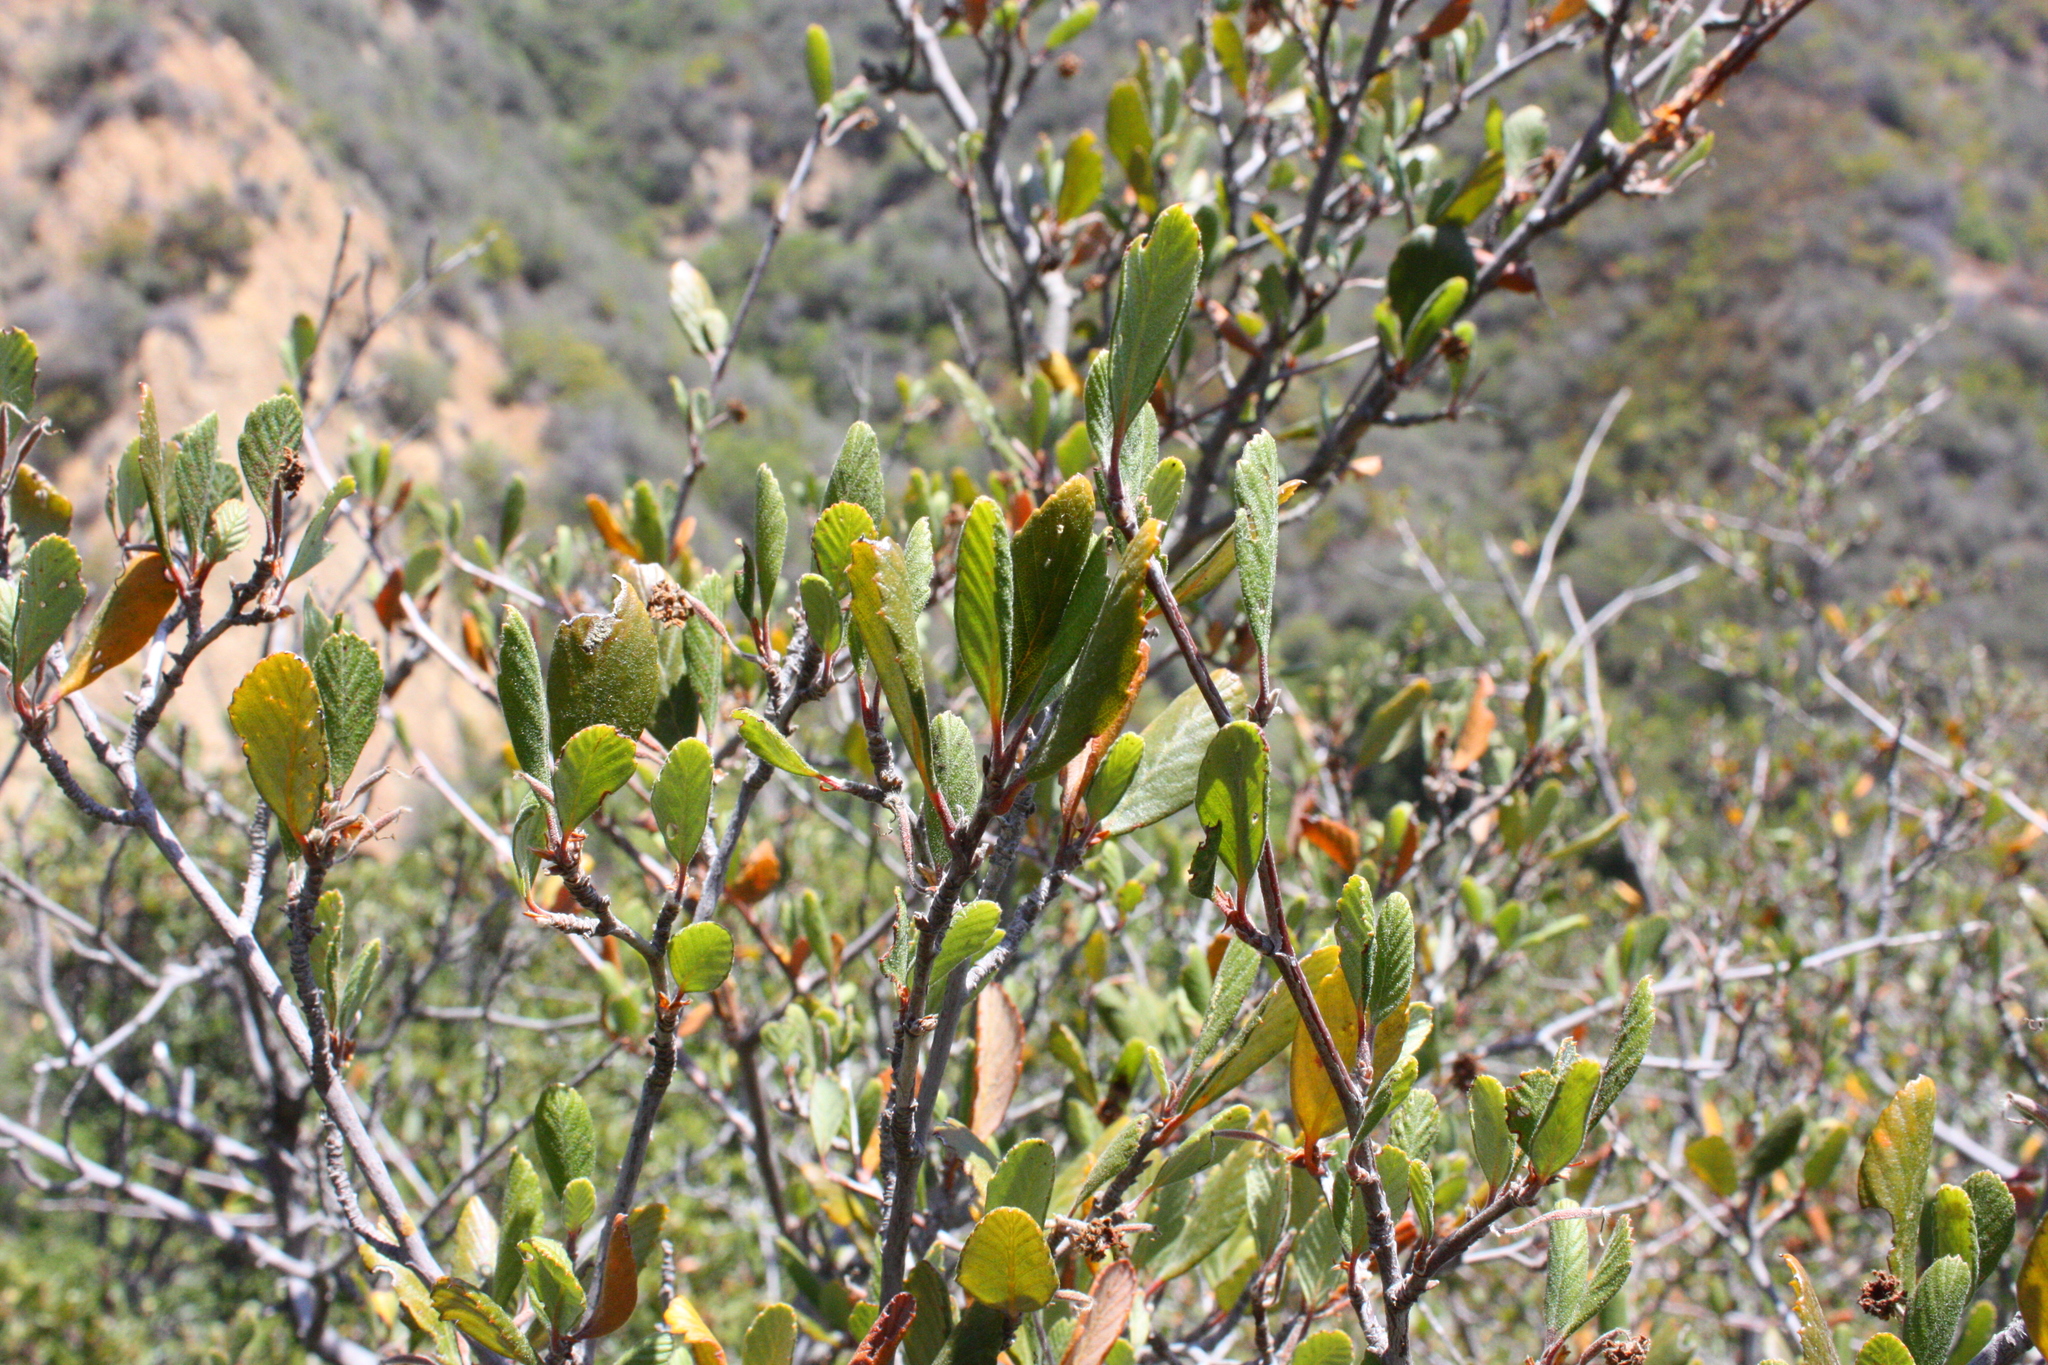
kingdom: Plantae
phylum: Tracheophyta
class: Magnoliopsida
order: Rosales
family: Rosaceae
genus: Cercocarpus
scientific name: Cercocarpus betuloides
